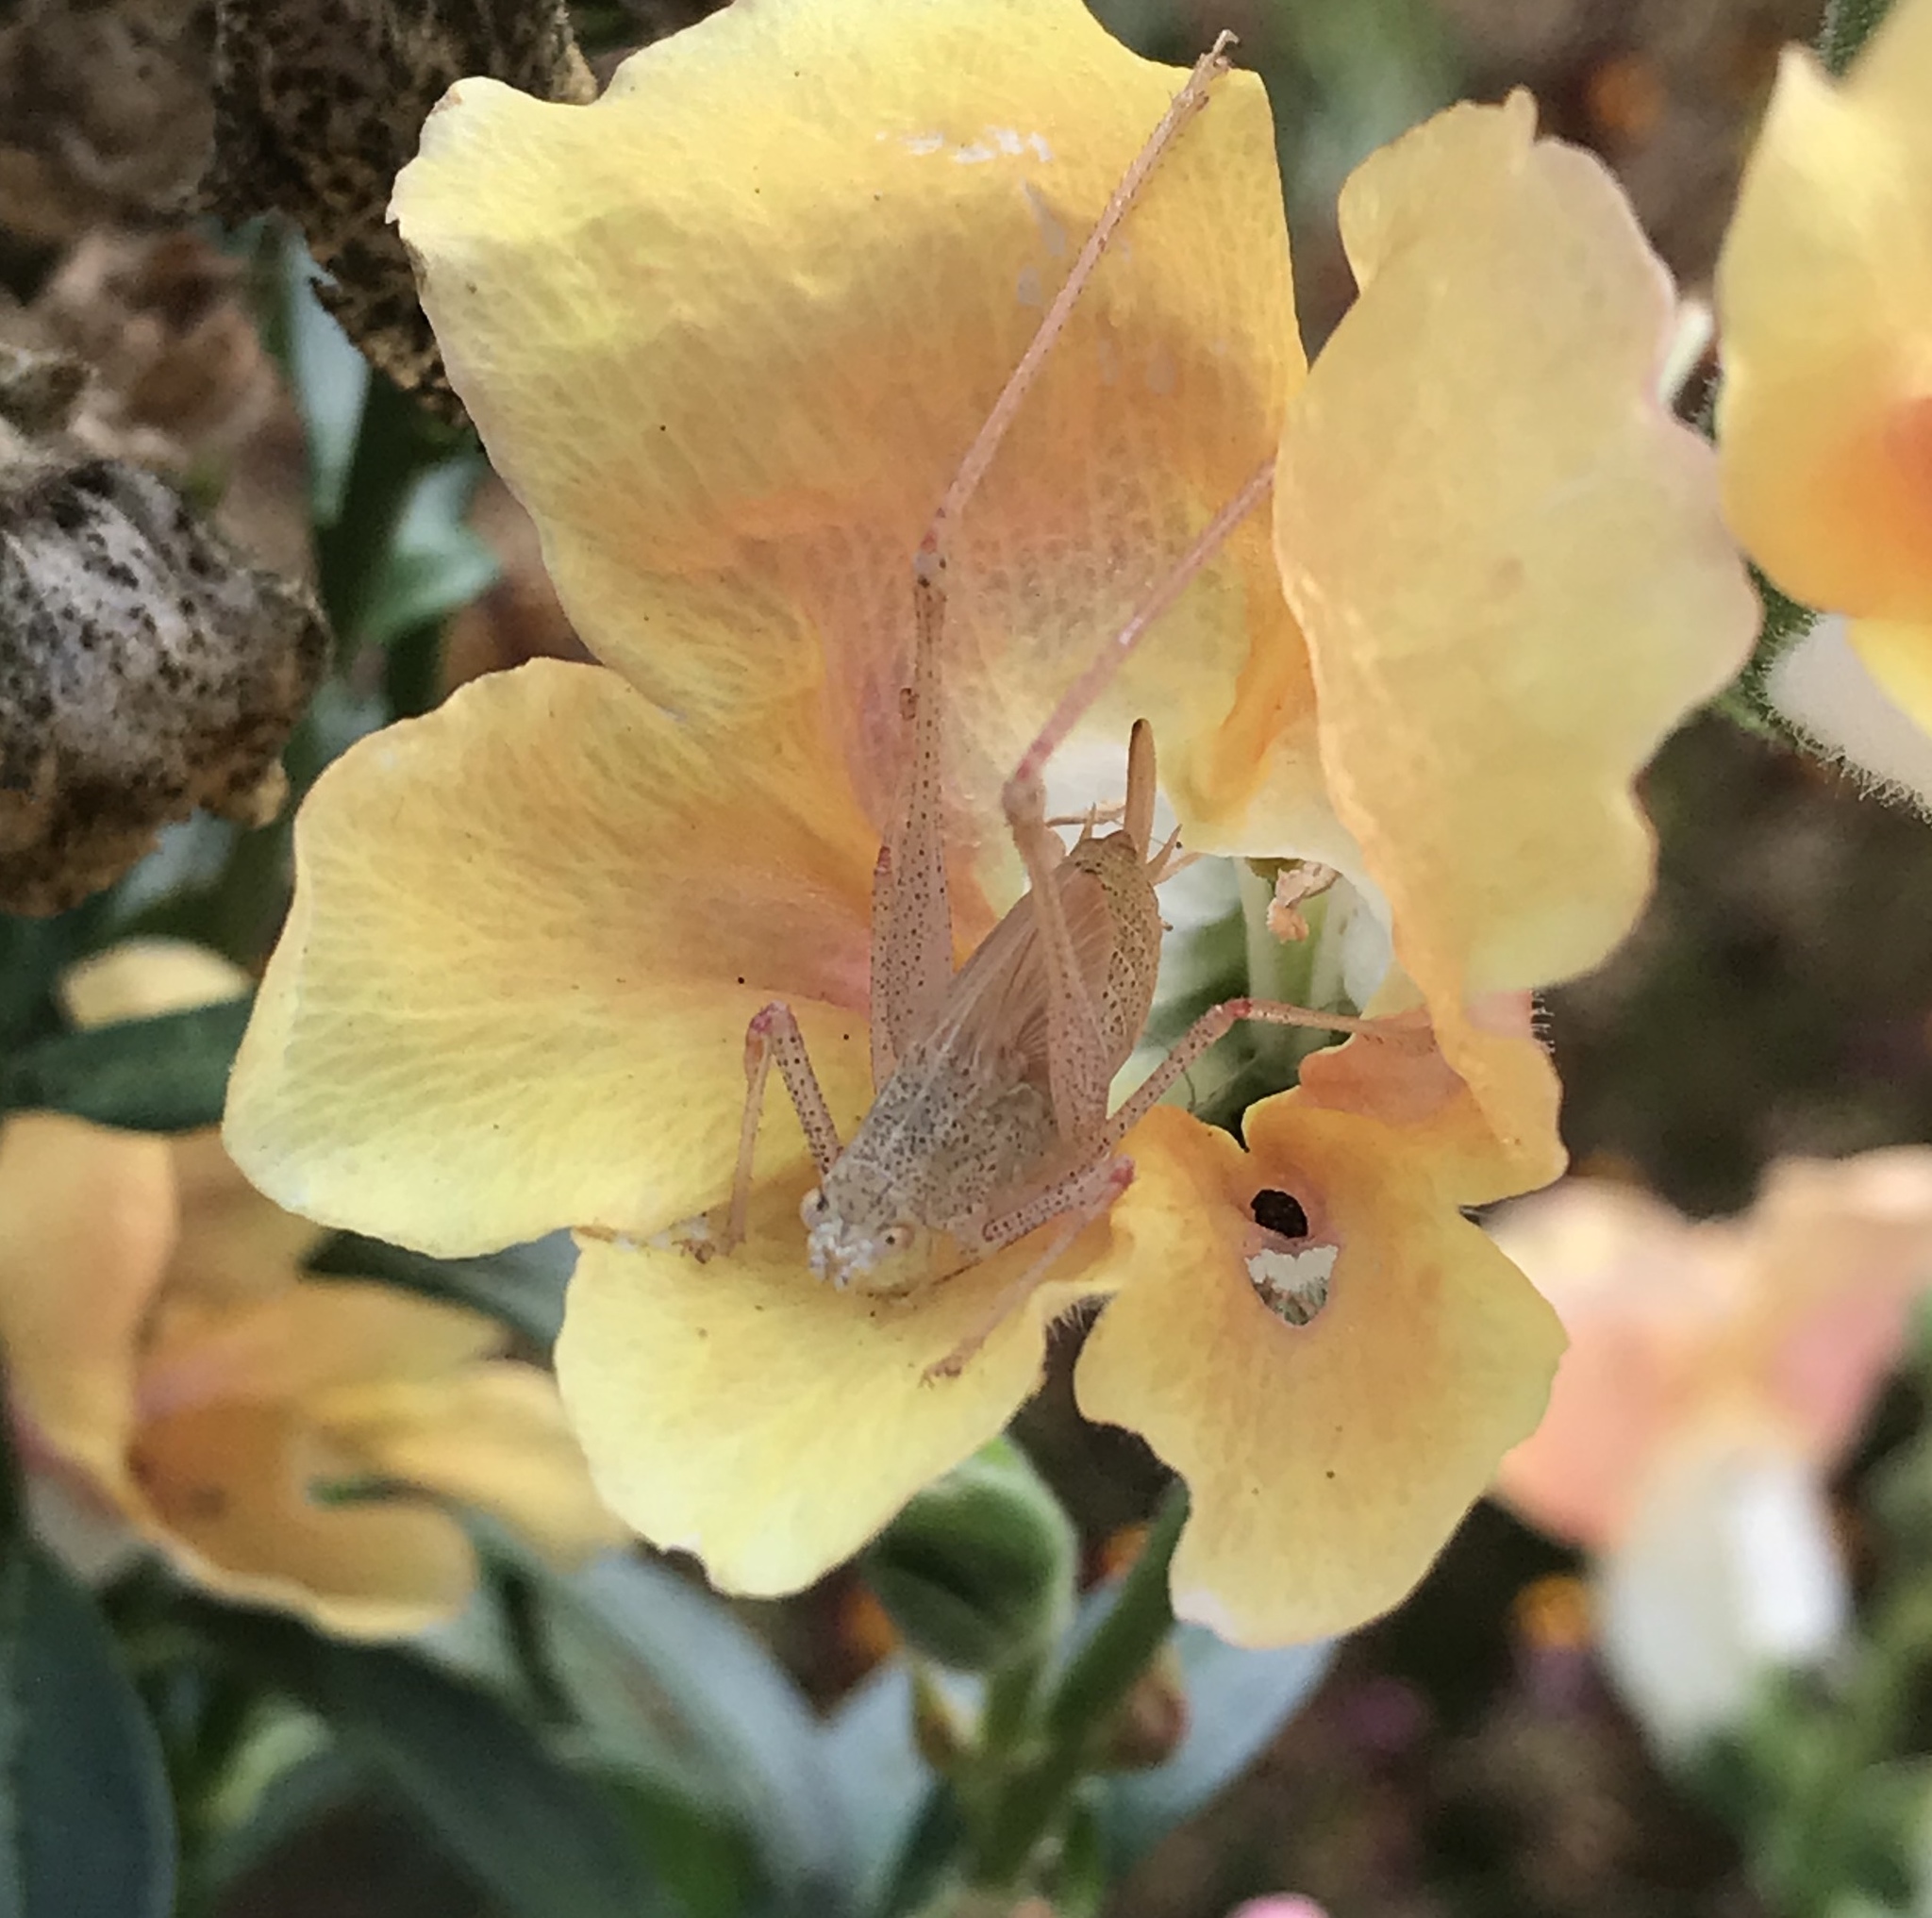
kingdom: Animalia
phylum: Arthropoda
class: Insecta
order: Orthoptera
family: Tettigoniidae
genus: Phaneroptera
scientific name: Phaneroptera nana
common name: Southern sickle bush-cricket
